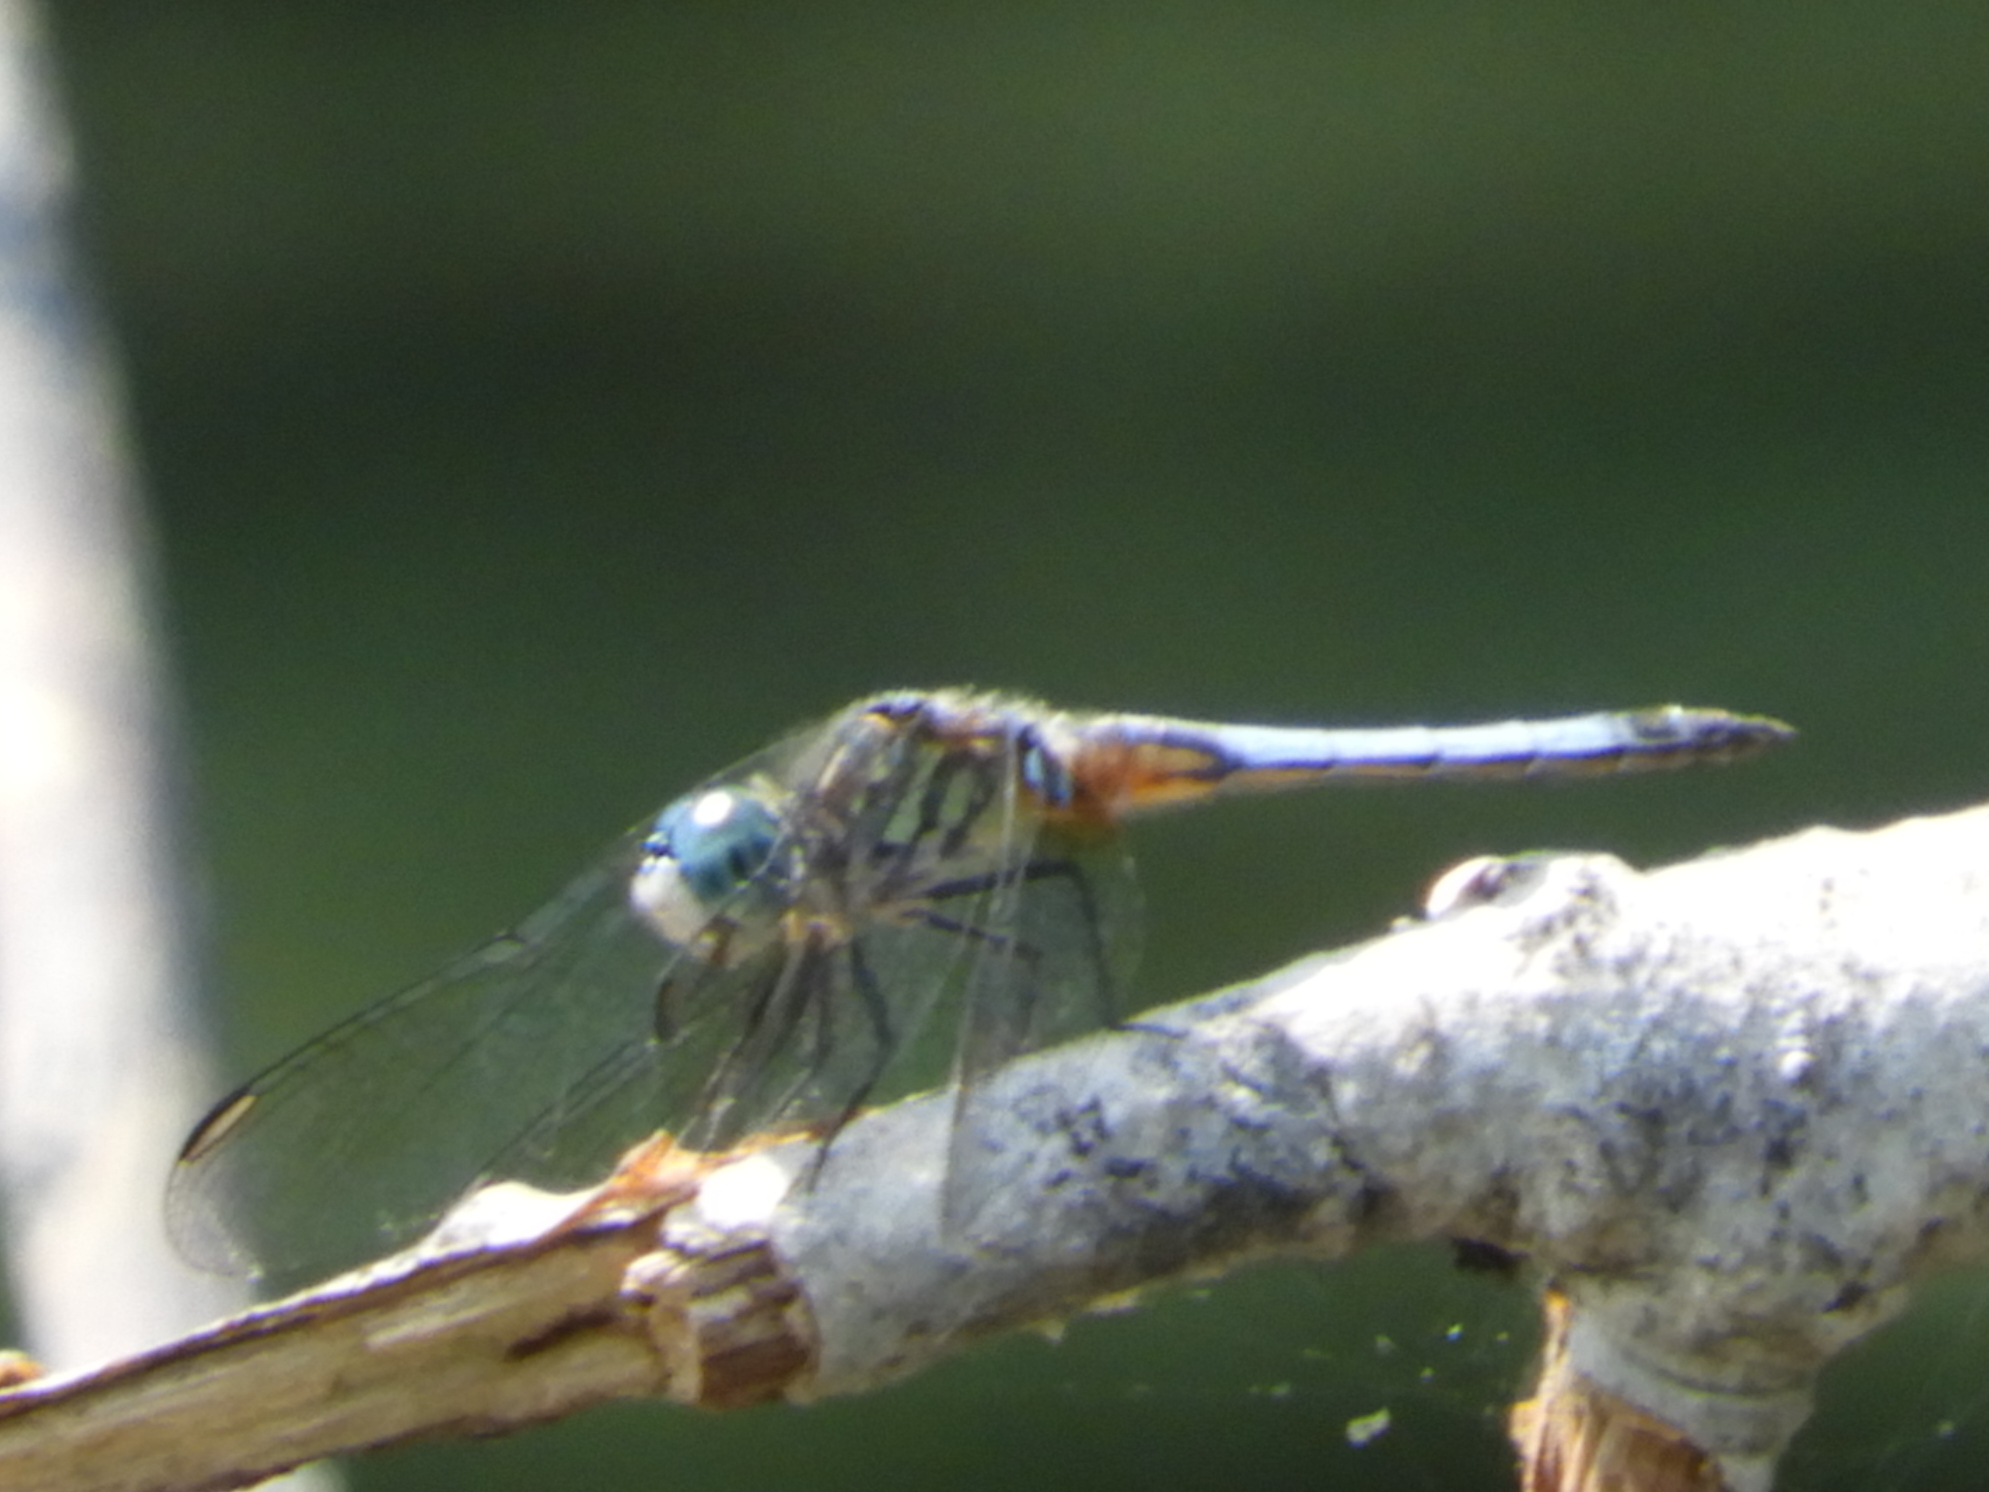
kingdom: Animalia
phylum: Arthropoda
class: Insecta
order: Odonata
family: Libellulidae
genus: Pachydiplax
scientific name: Pachydiplax longipennis
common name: Blue dasher
